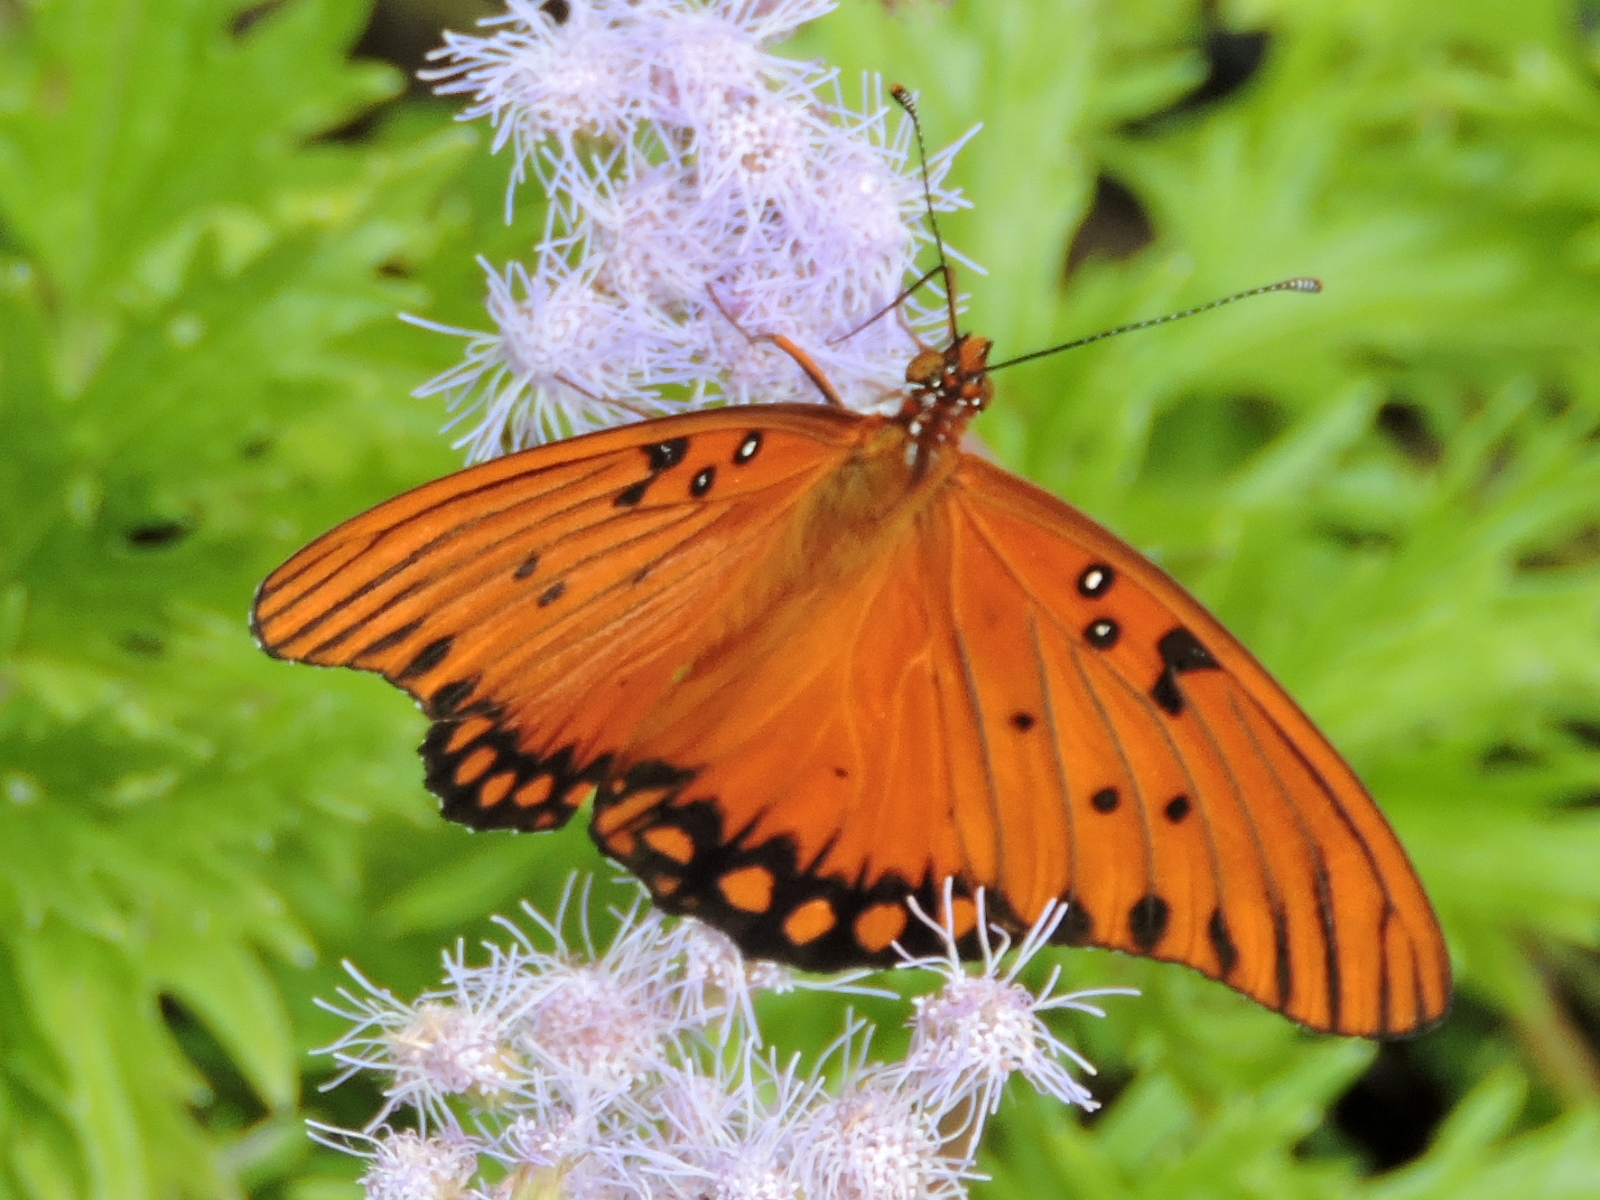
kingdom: Animalia
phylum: Arthropoda
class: Insecta
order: Lepidoptera
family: Nymphalidae
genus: Dione
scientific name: Dione vanillae
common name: Gulf fritillary
